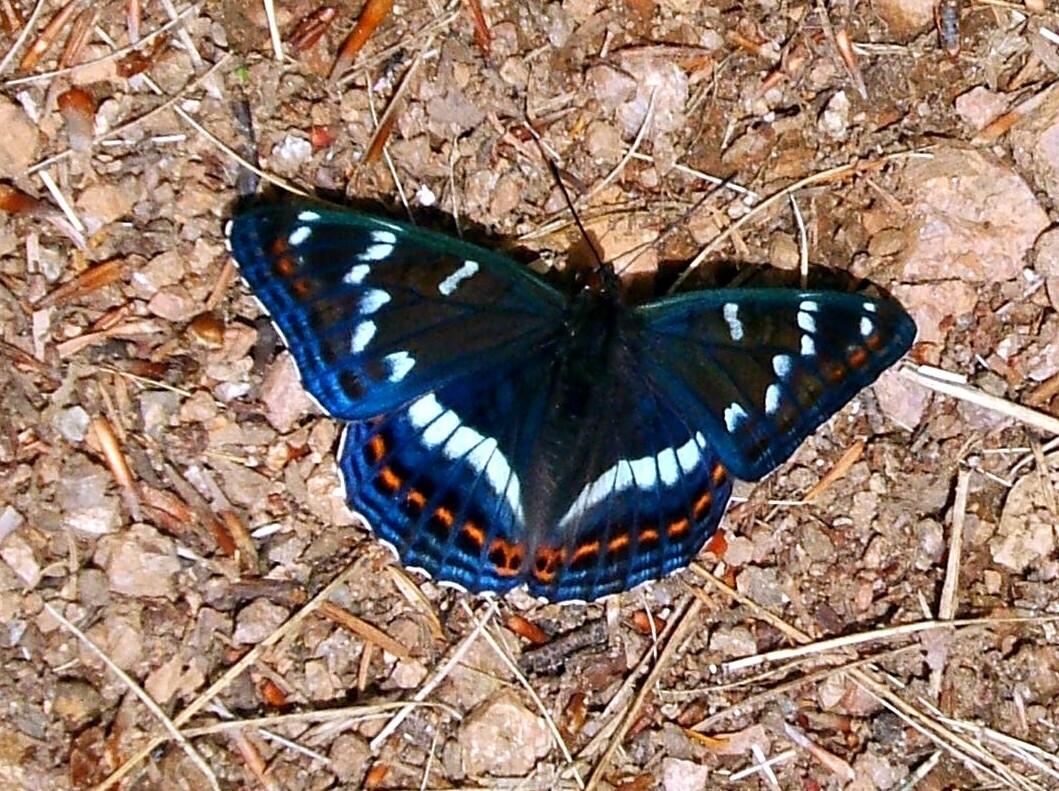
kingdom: Animalia
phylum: Arthropoda
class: Insecta
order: Lepidoptera
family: Nymphalidae
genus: Limenitis
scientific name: Limenitis populi
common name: Poplar admiral
